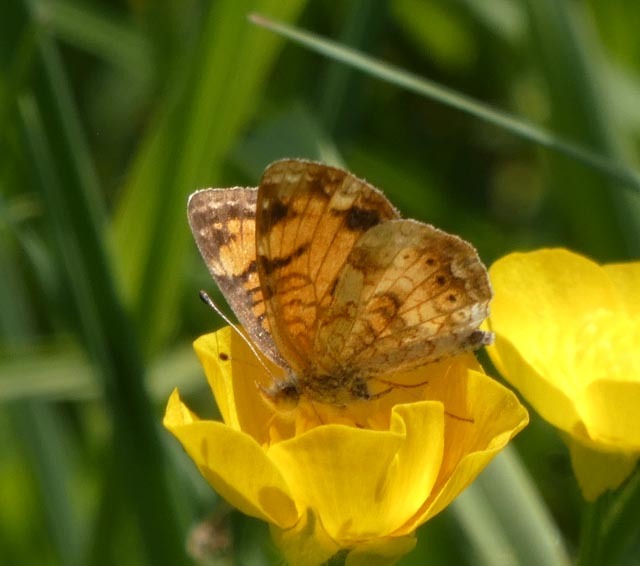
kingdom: Animalia
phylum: Arthropoda
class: Insecta
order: Lepidoptera
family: Nymphalidae
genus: Phyciodes
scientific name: Phyciodes tharos
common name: Pearl crescent
